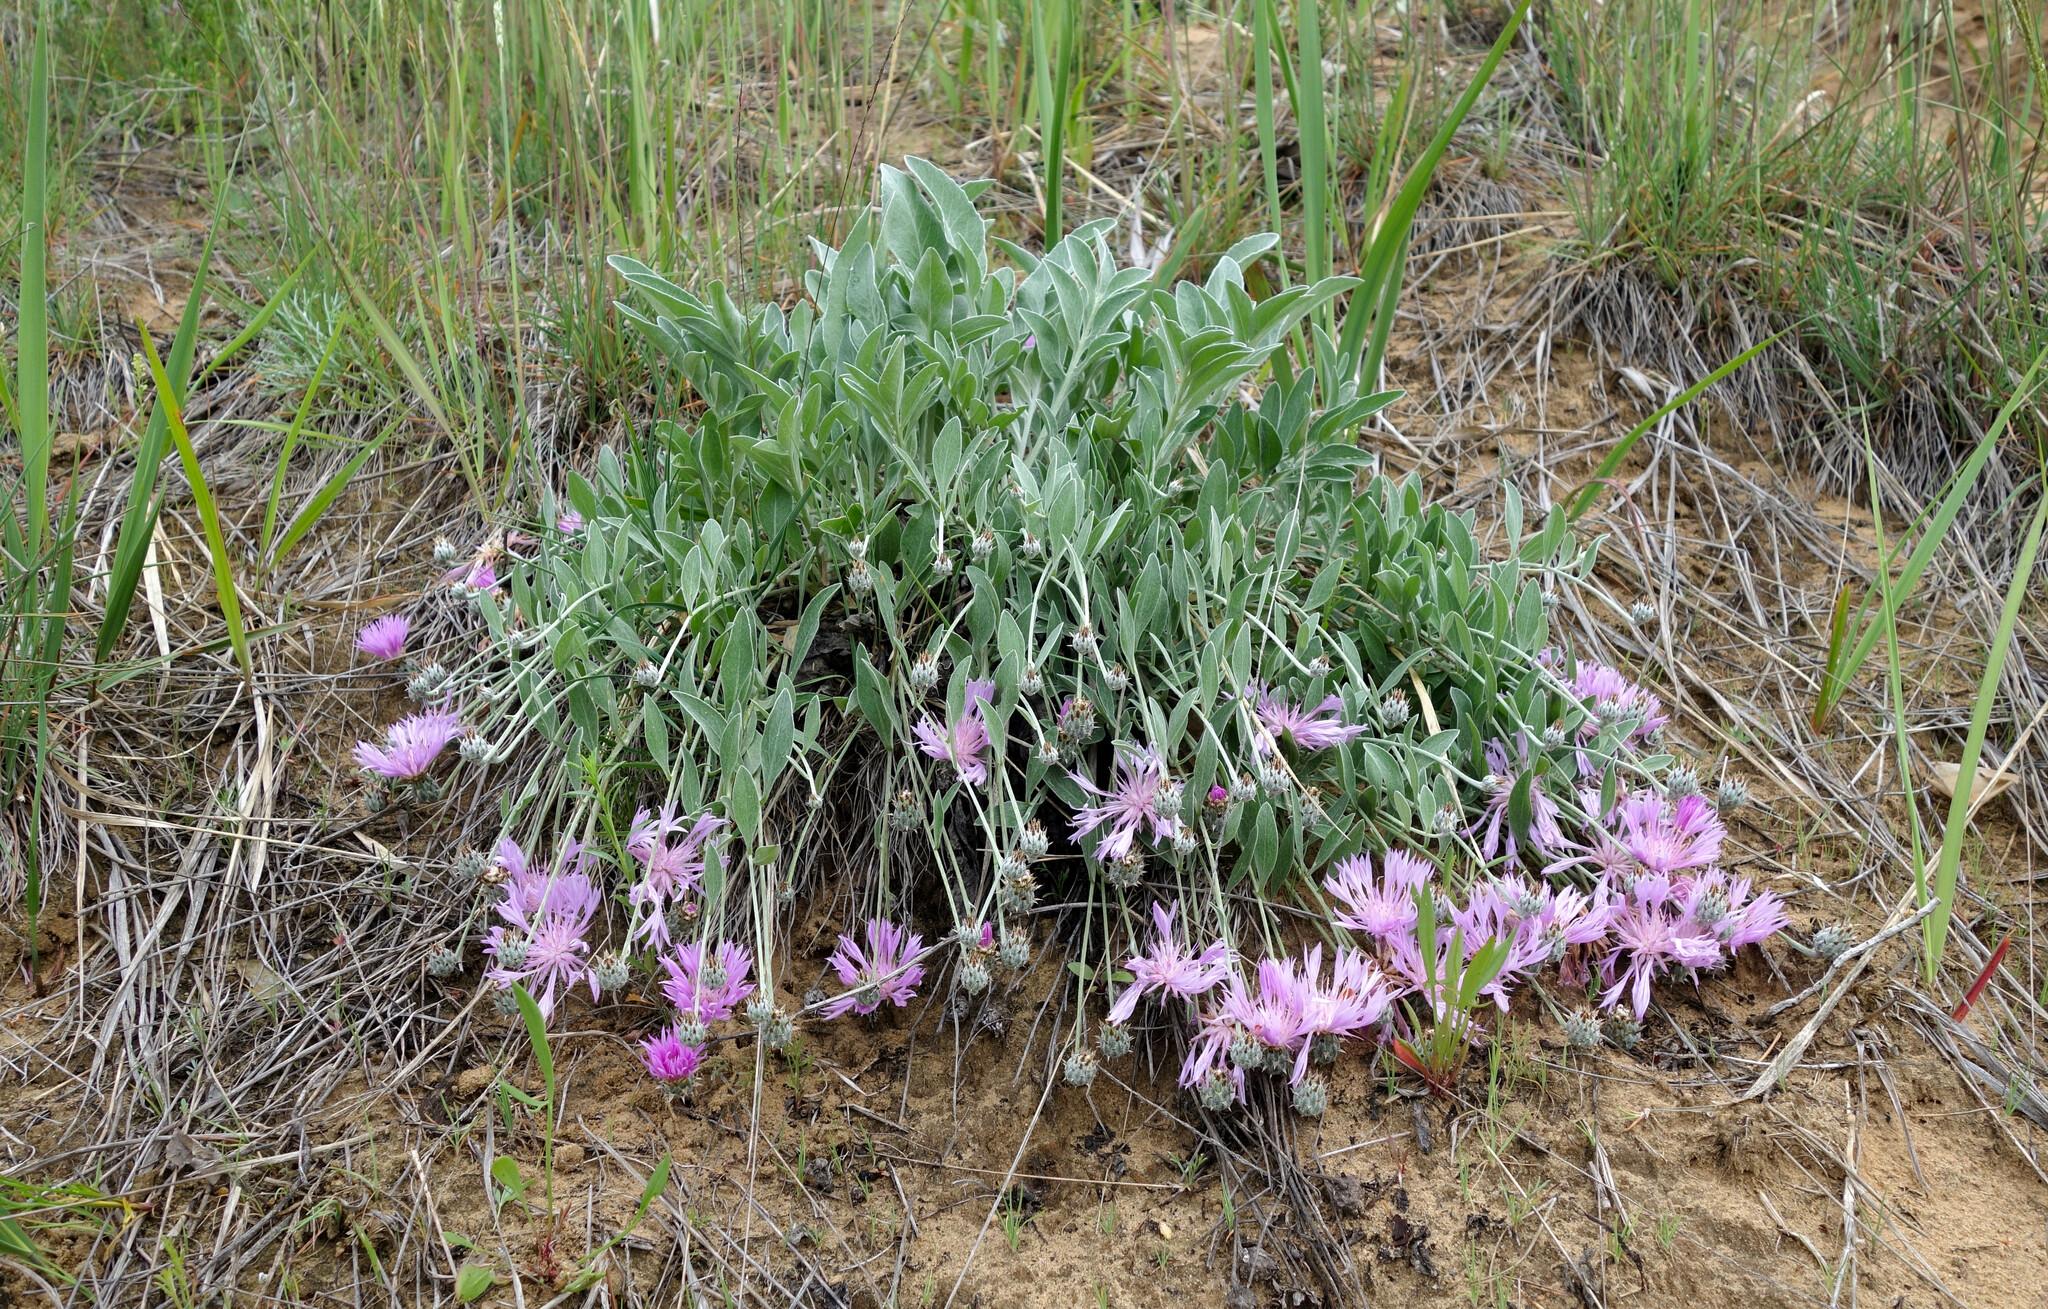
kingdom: Plantae
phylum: Tracheophyta
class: Magnoliopsida
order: Asterales
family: Asteraceae
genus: Psephellus
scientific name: Psephellus sumensis
